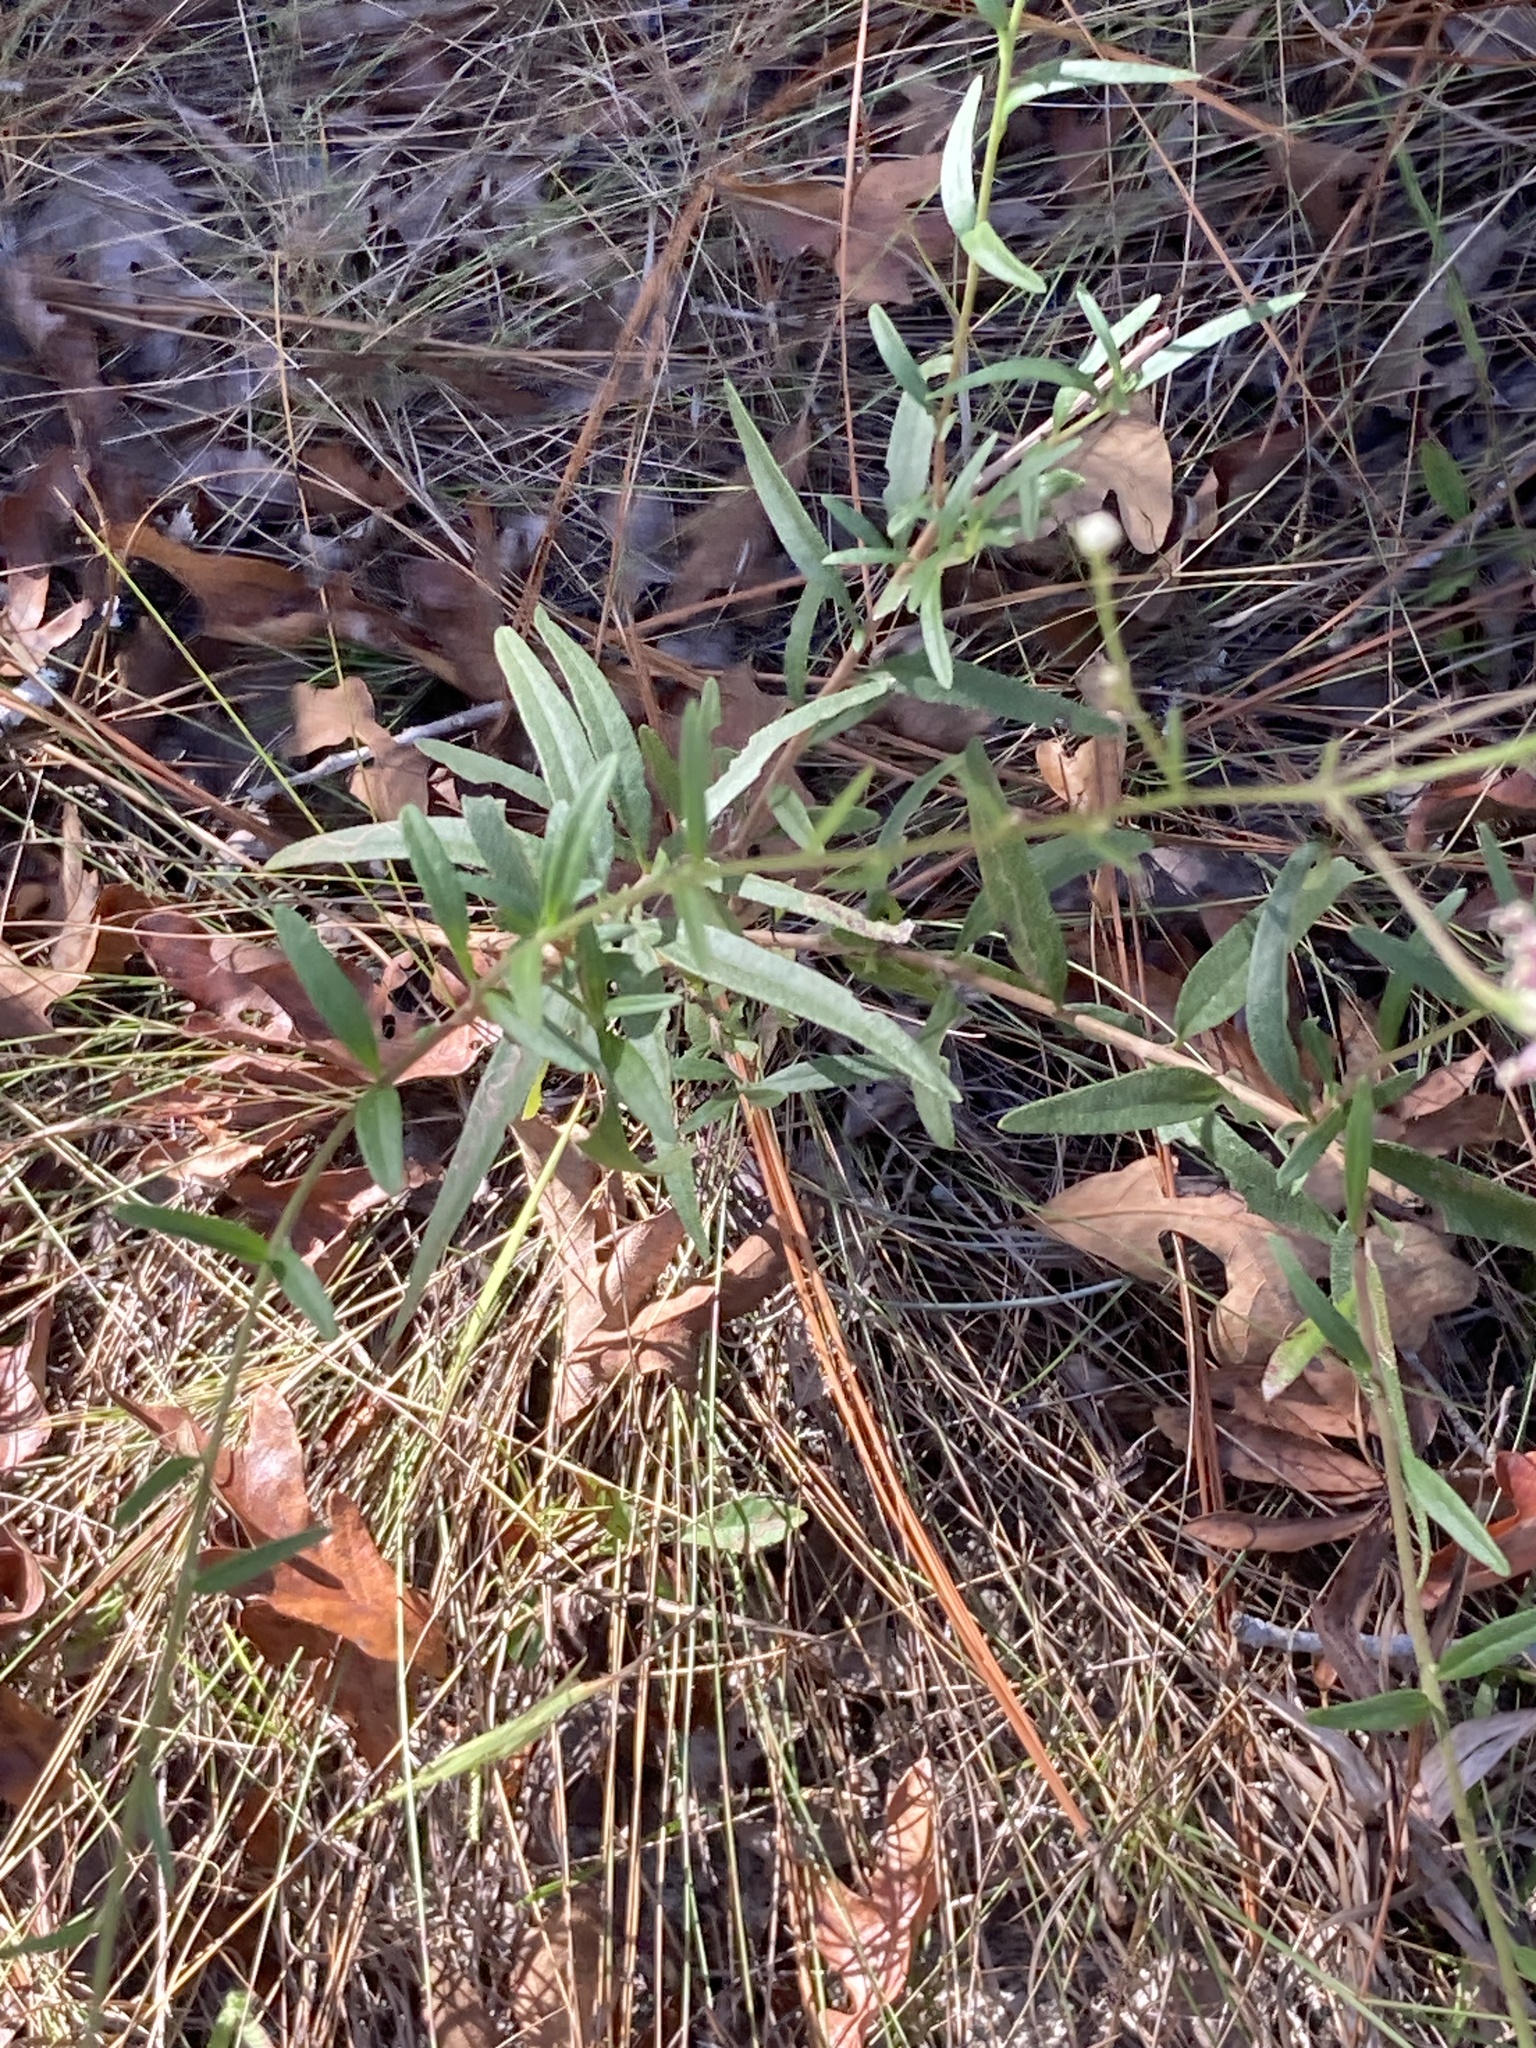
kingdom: Plantae
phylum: Tracheophyta
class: Magnoliopsida
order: Asterales
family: Asteraceae
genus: Palafoxia
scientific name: Palafoxia integrifolia
